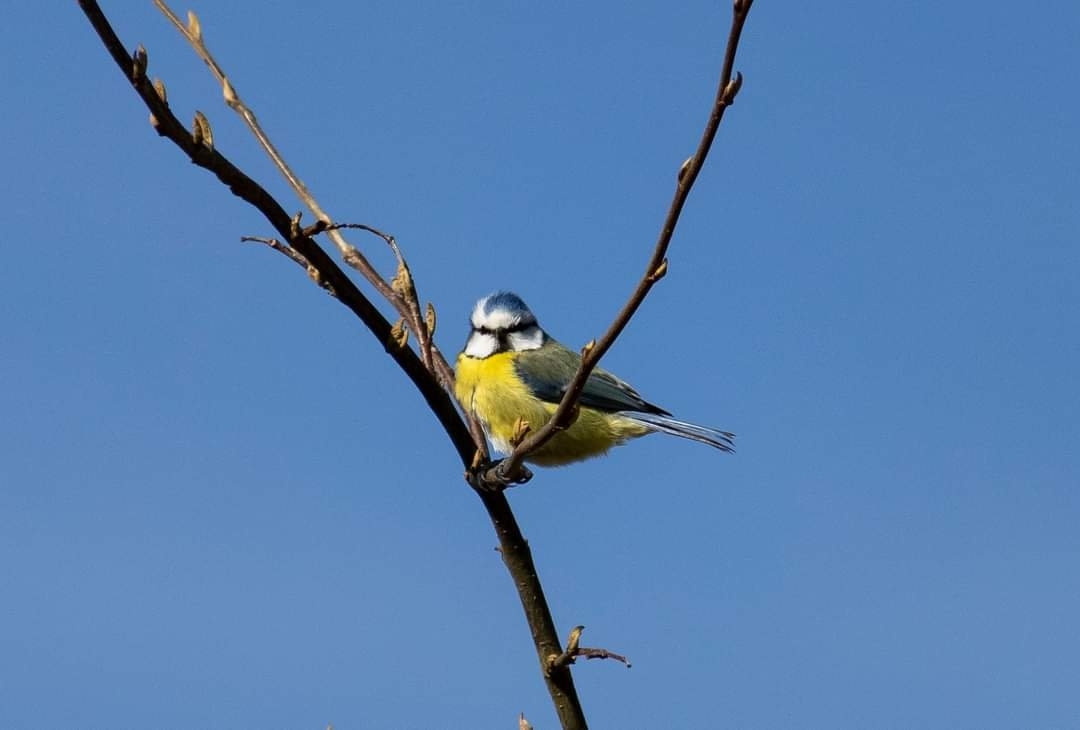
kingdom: Animalia
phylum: Chordata
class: Aves
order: Passeriformes
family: Paridae
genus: Cyanistes
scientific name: Cyanistes caeruleus
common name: Eurasian blue tit
